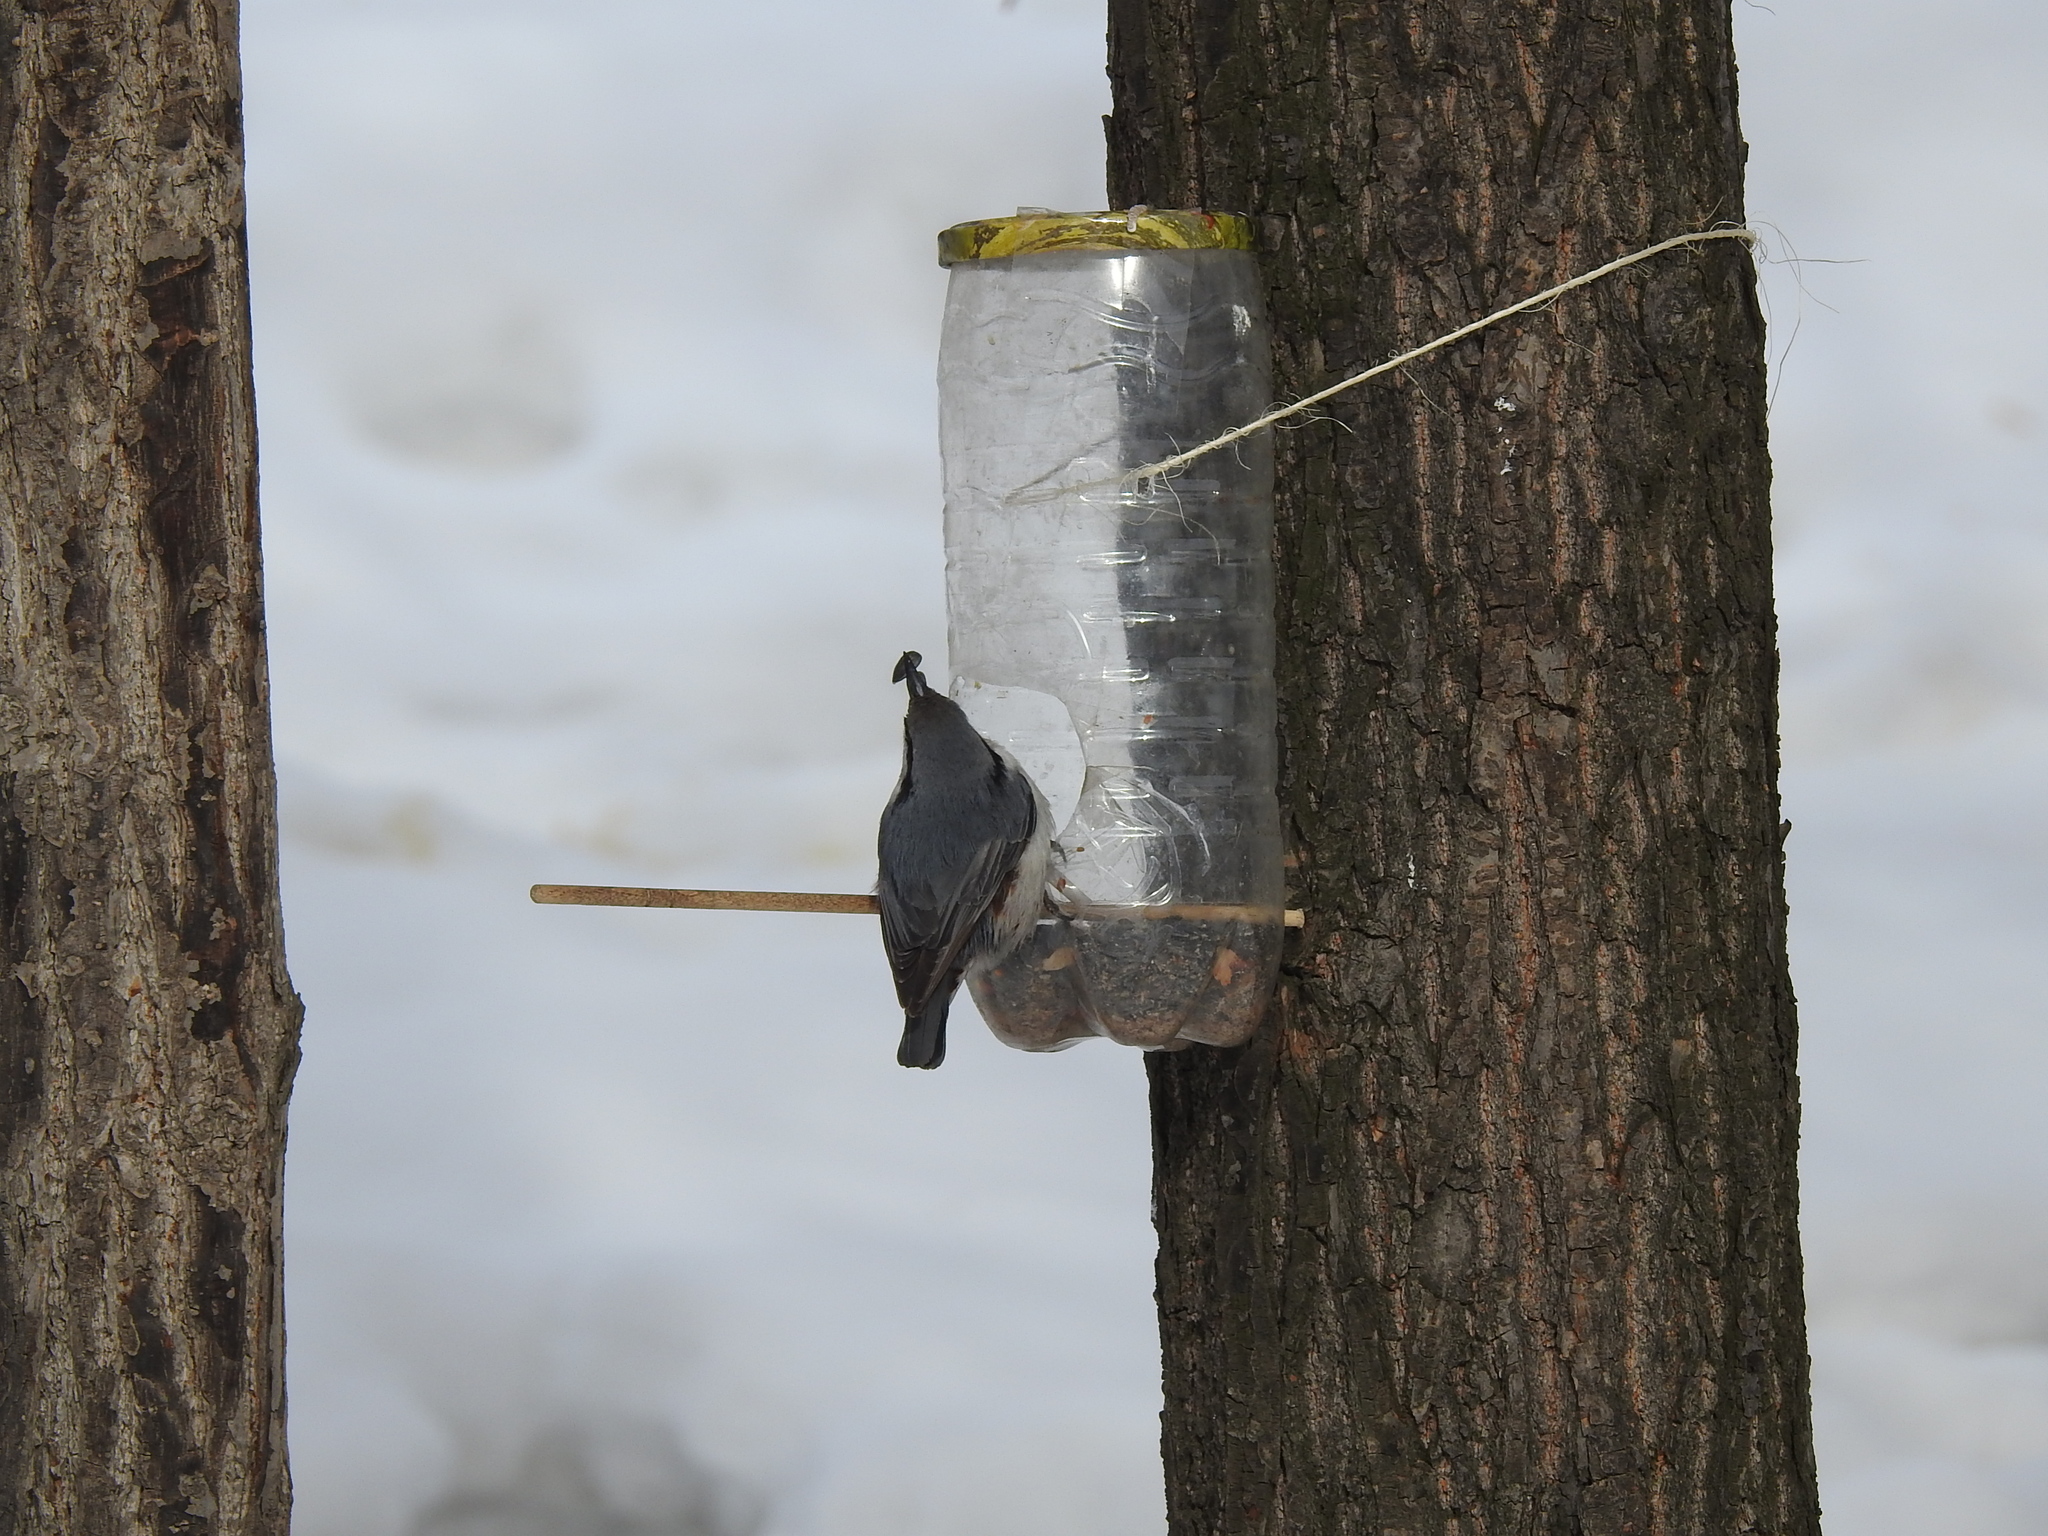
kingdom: Animalia
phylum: Chordata
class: Aves
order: Passeriformes
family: Sittidae
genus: Sitta
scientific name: Sitta europaea
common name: Eurasian nuthatch
